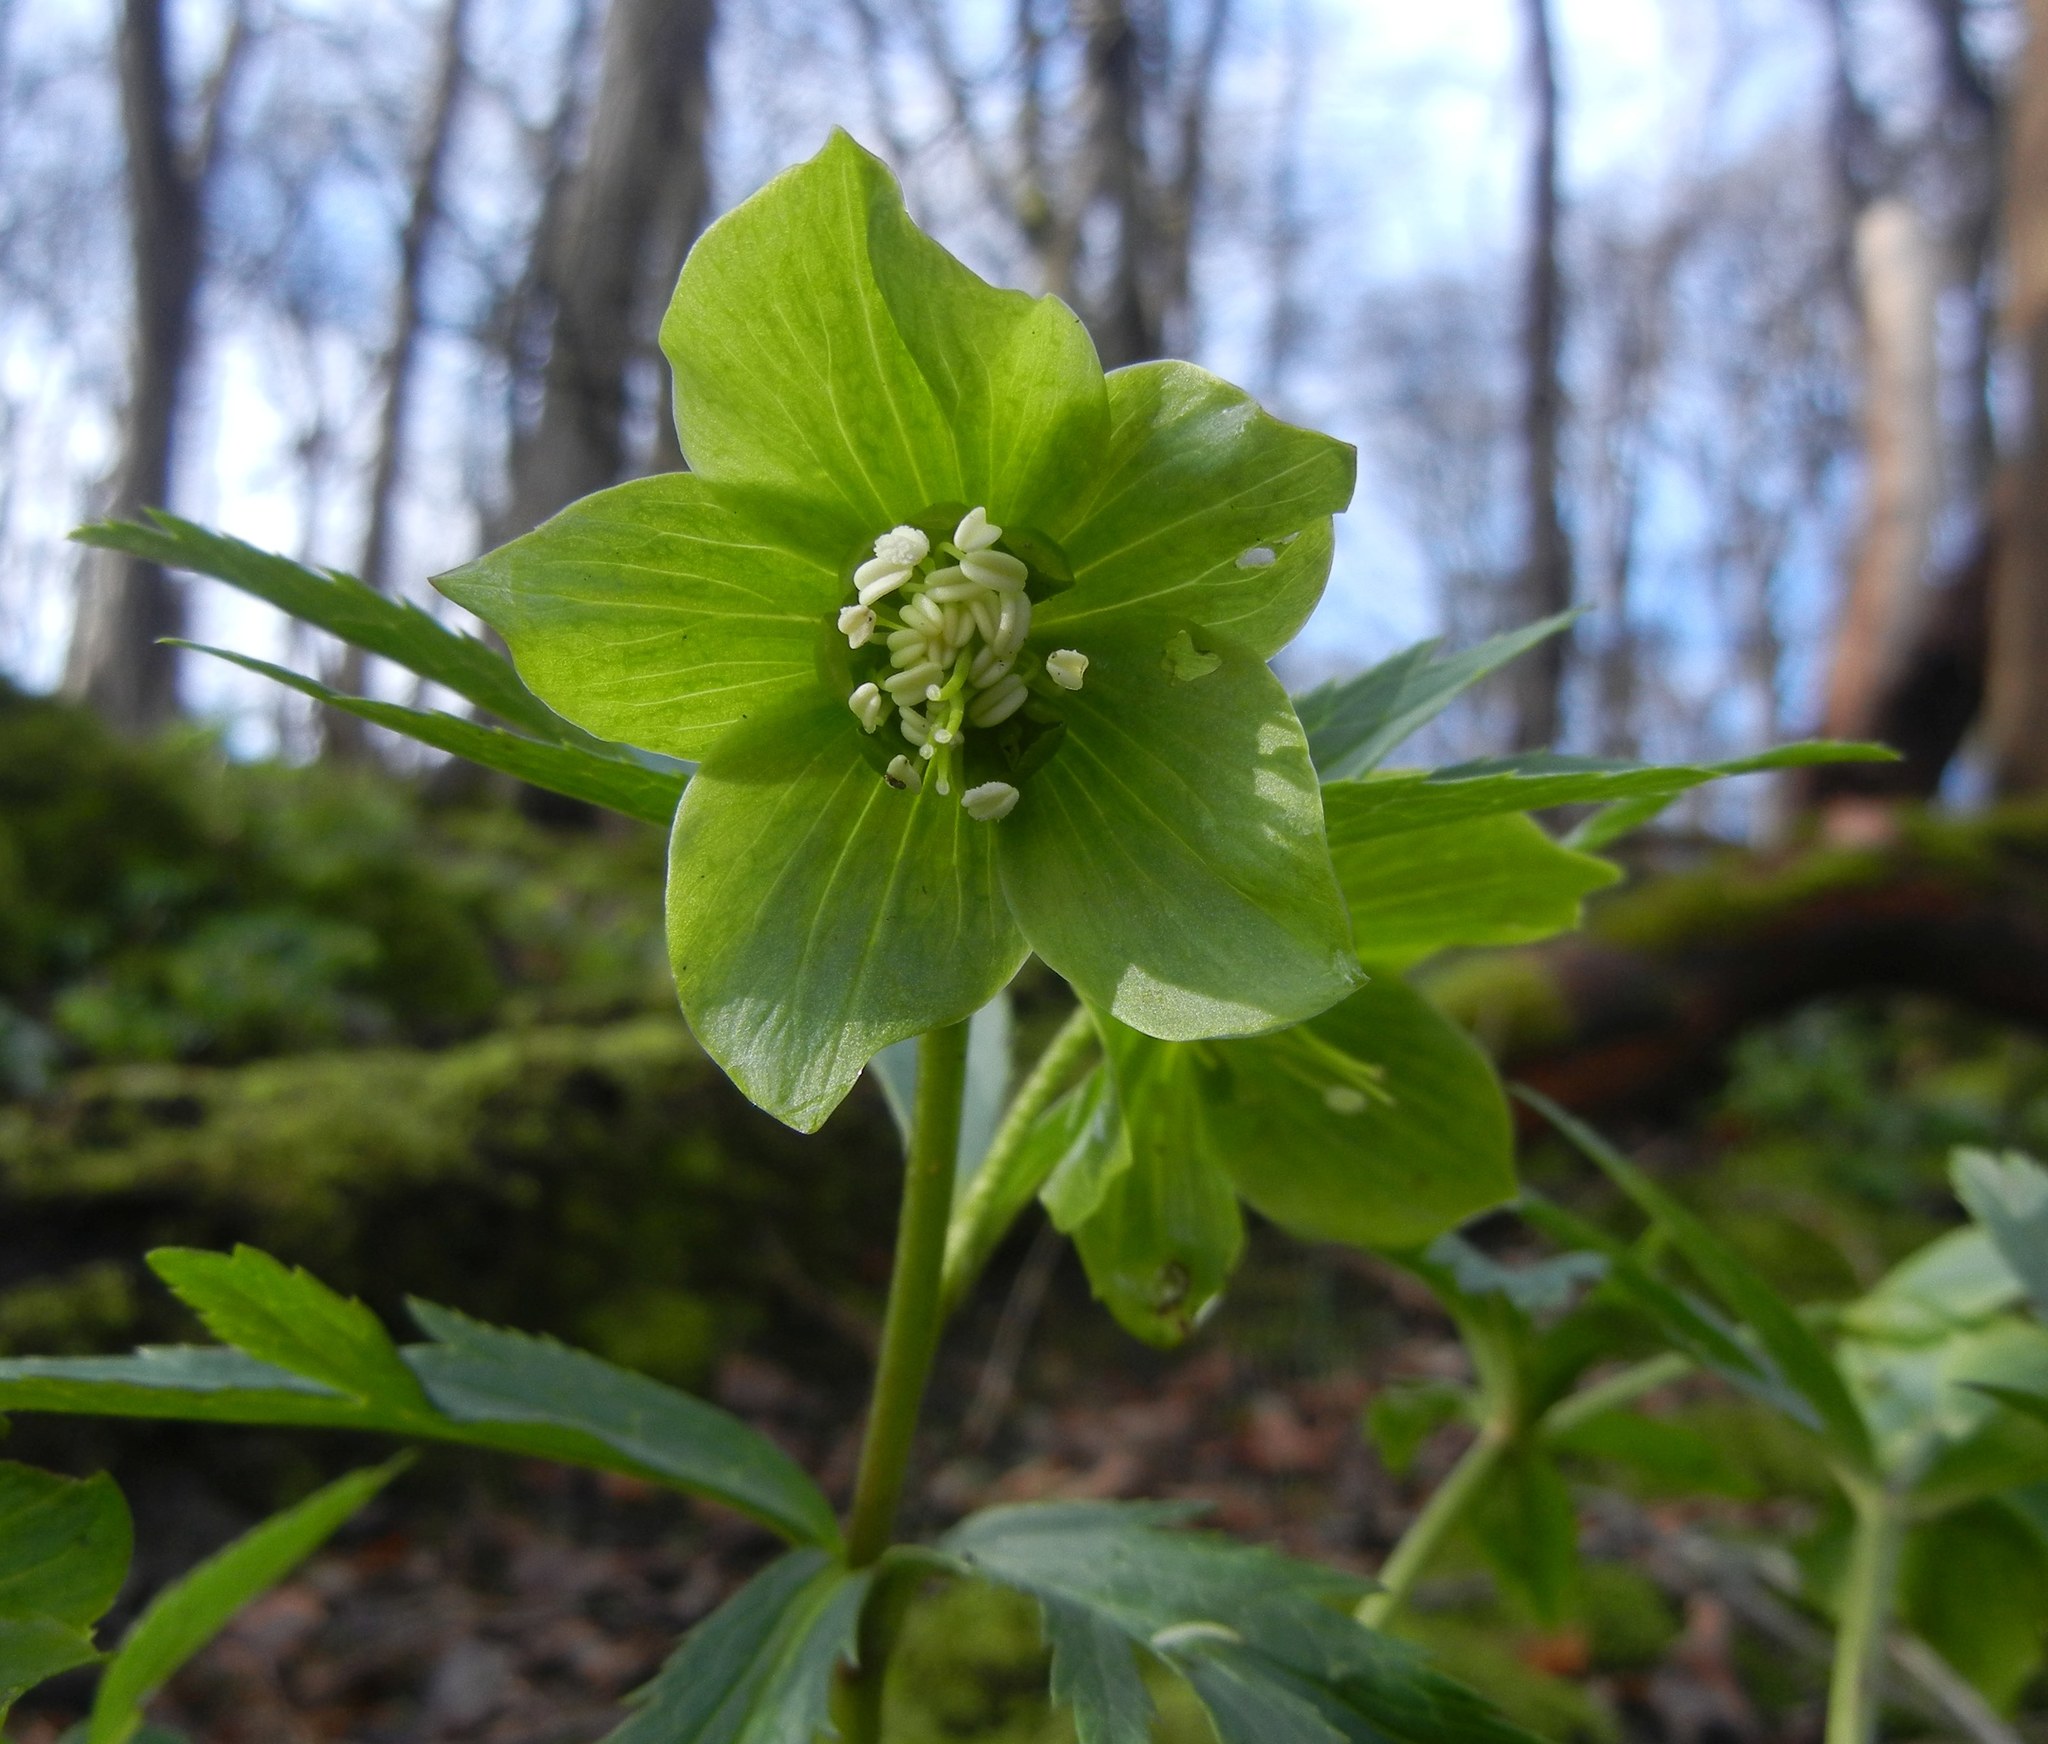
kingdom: Plantae
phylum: Tracheophyta
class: Magnoliopsida
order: Ranunculales
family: Ranunculaceae
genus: Helleborus
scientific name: Helleborus viridis
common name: Green hellebore
